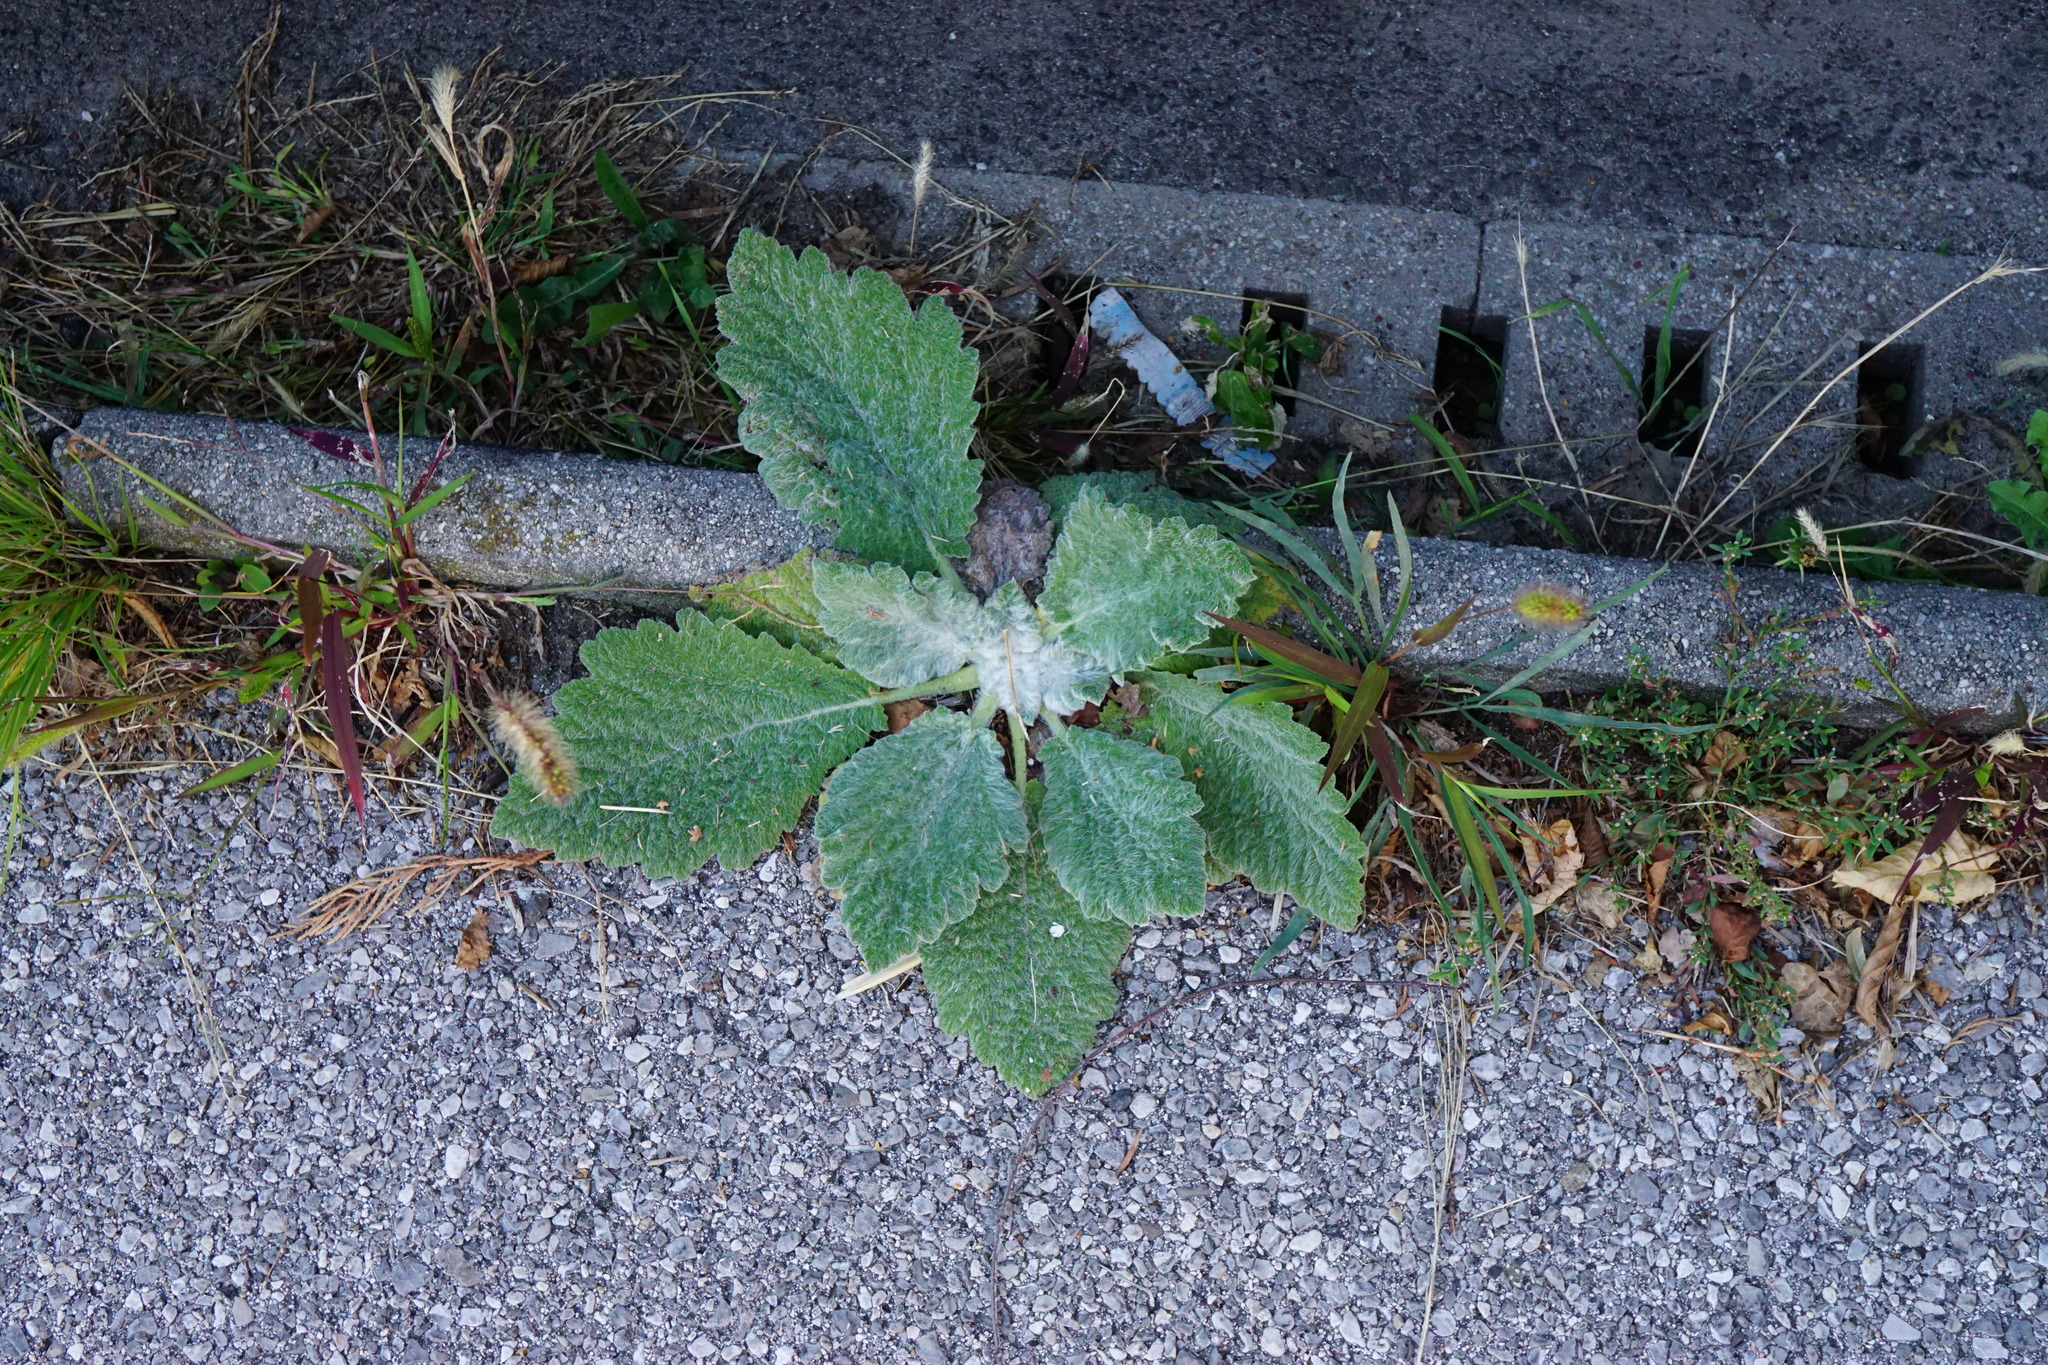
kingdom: Plantae
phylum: Tracheophyta
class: Magnoliopsida
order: Lamiales
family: Lamiaceae
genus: Salvia
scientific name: Salvia aethiopis
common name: Mediterranean sage
